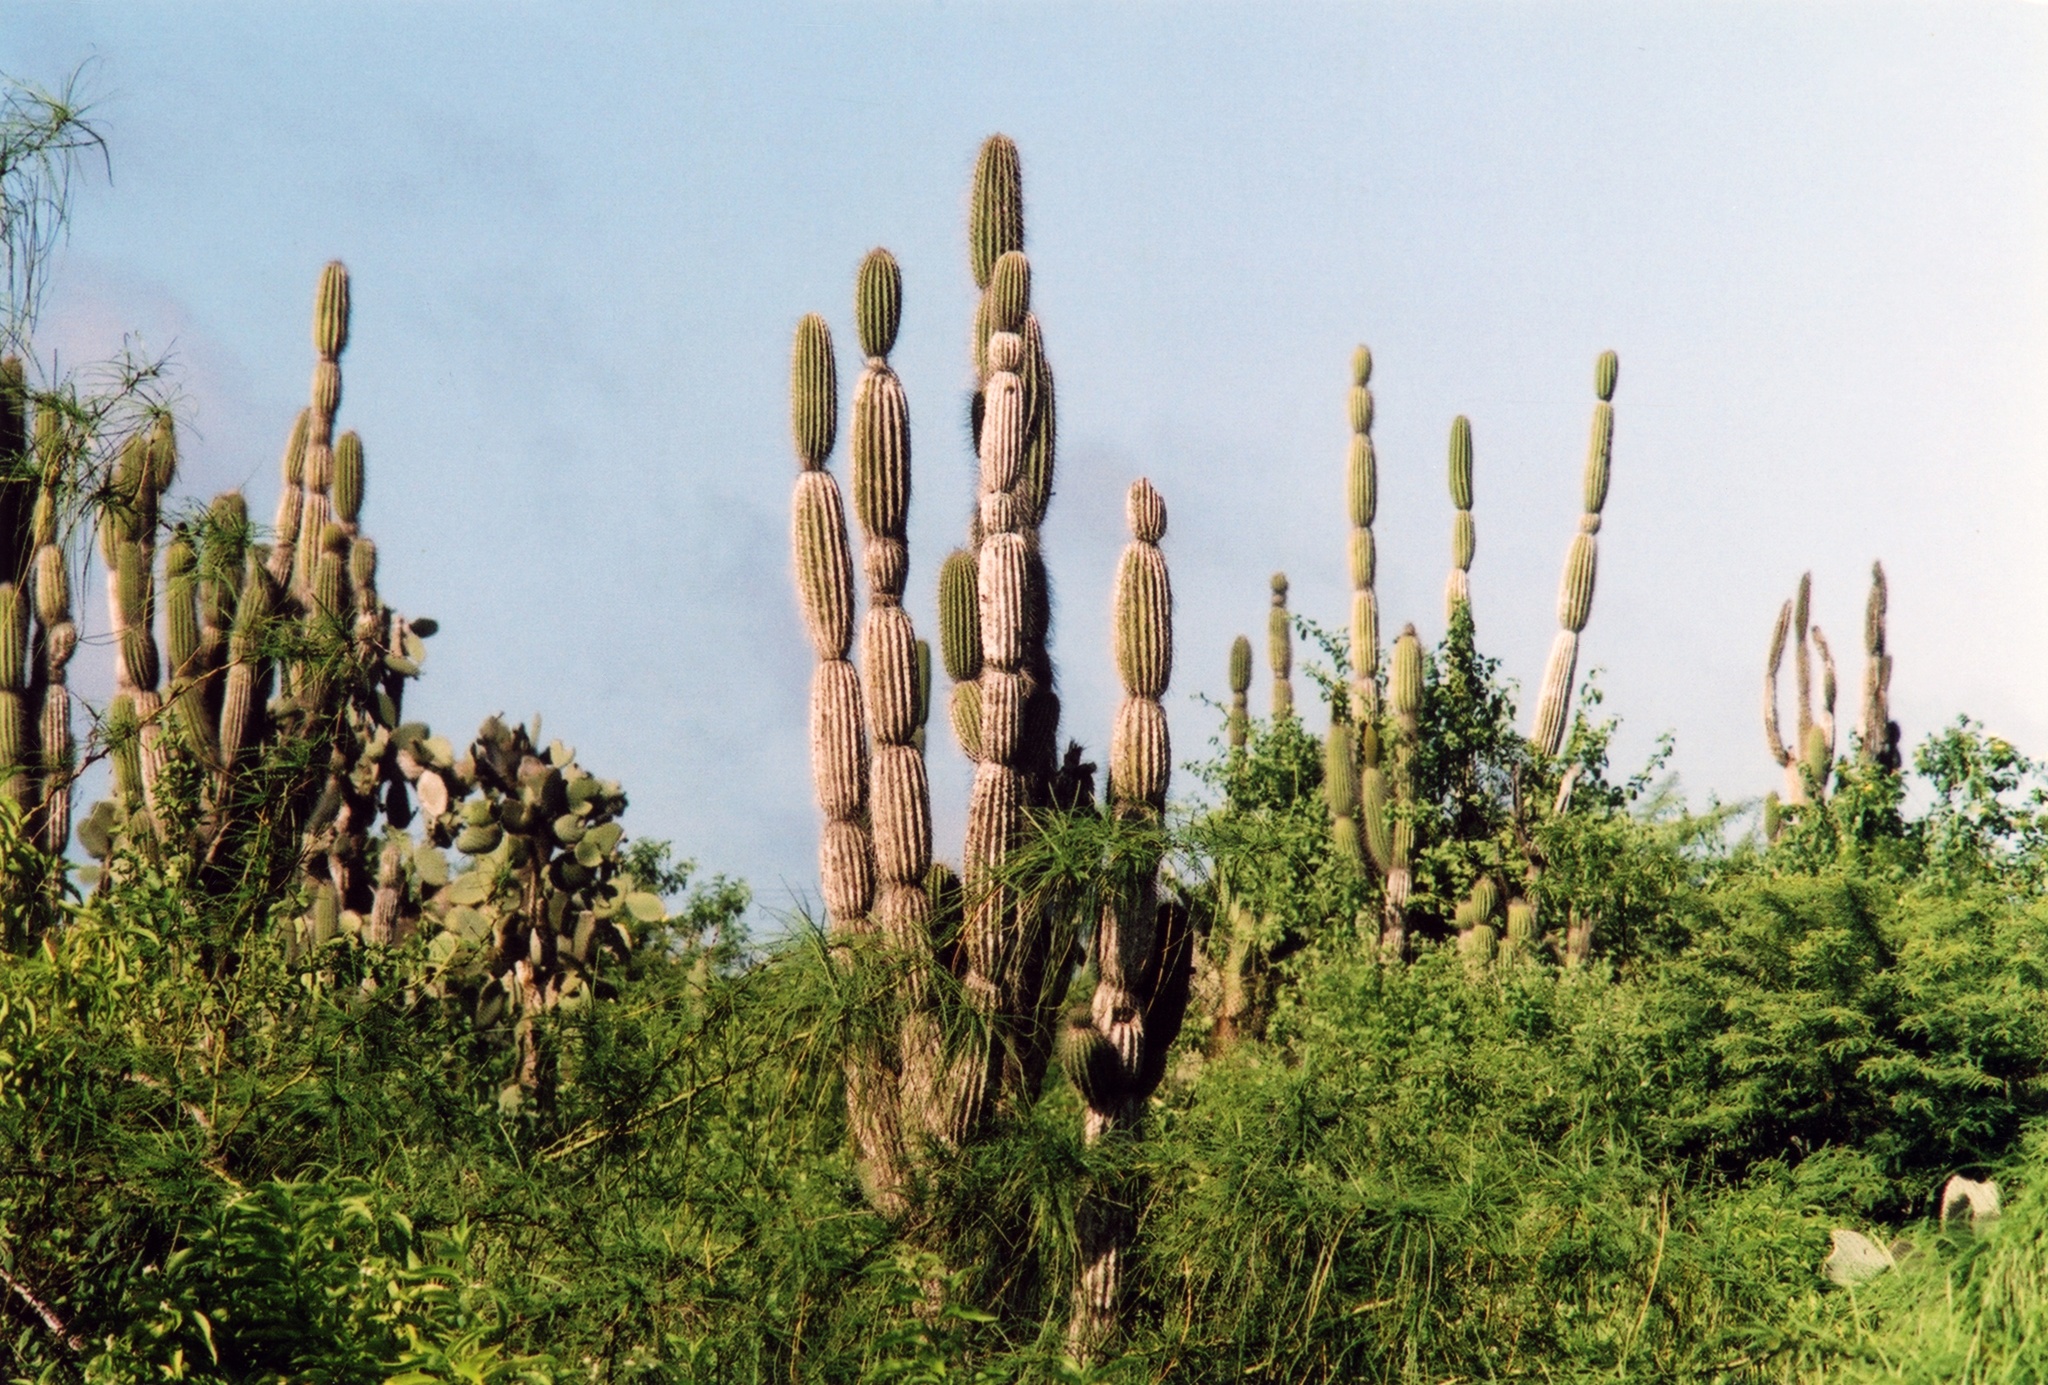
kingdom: Plantae
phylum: Tracheophyta
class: Magnoliopsida
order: Caryophyllales
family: Cactaceae
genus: Jasminocereus
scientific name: Jasminocereus thouarsii
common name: Candelabra cactus
